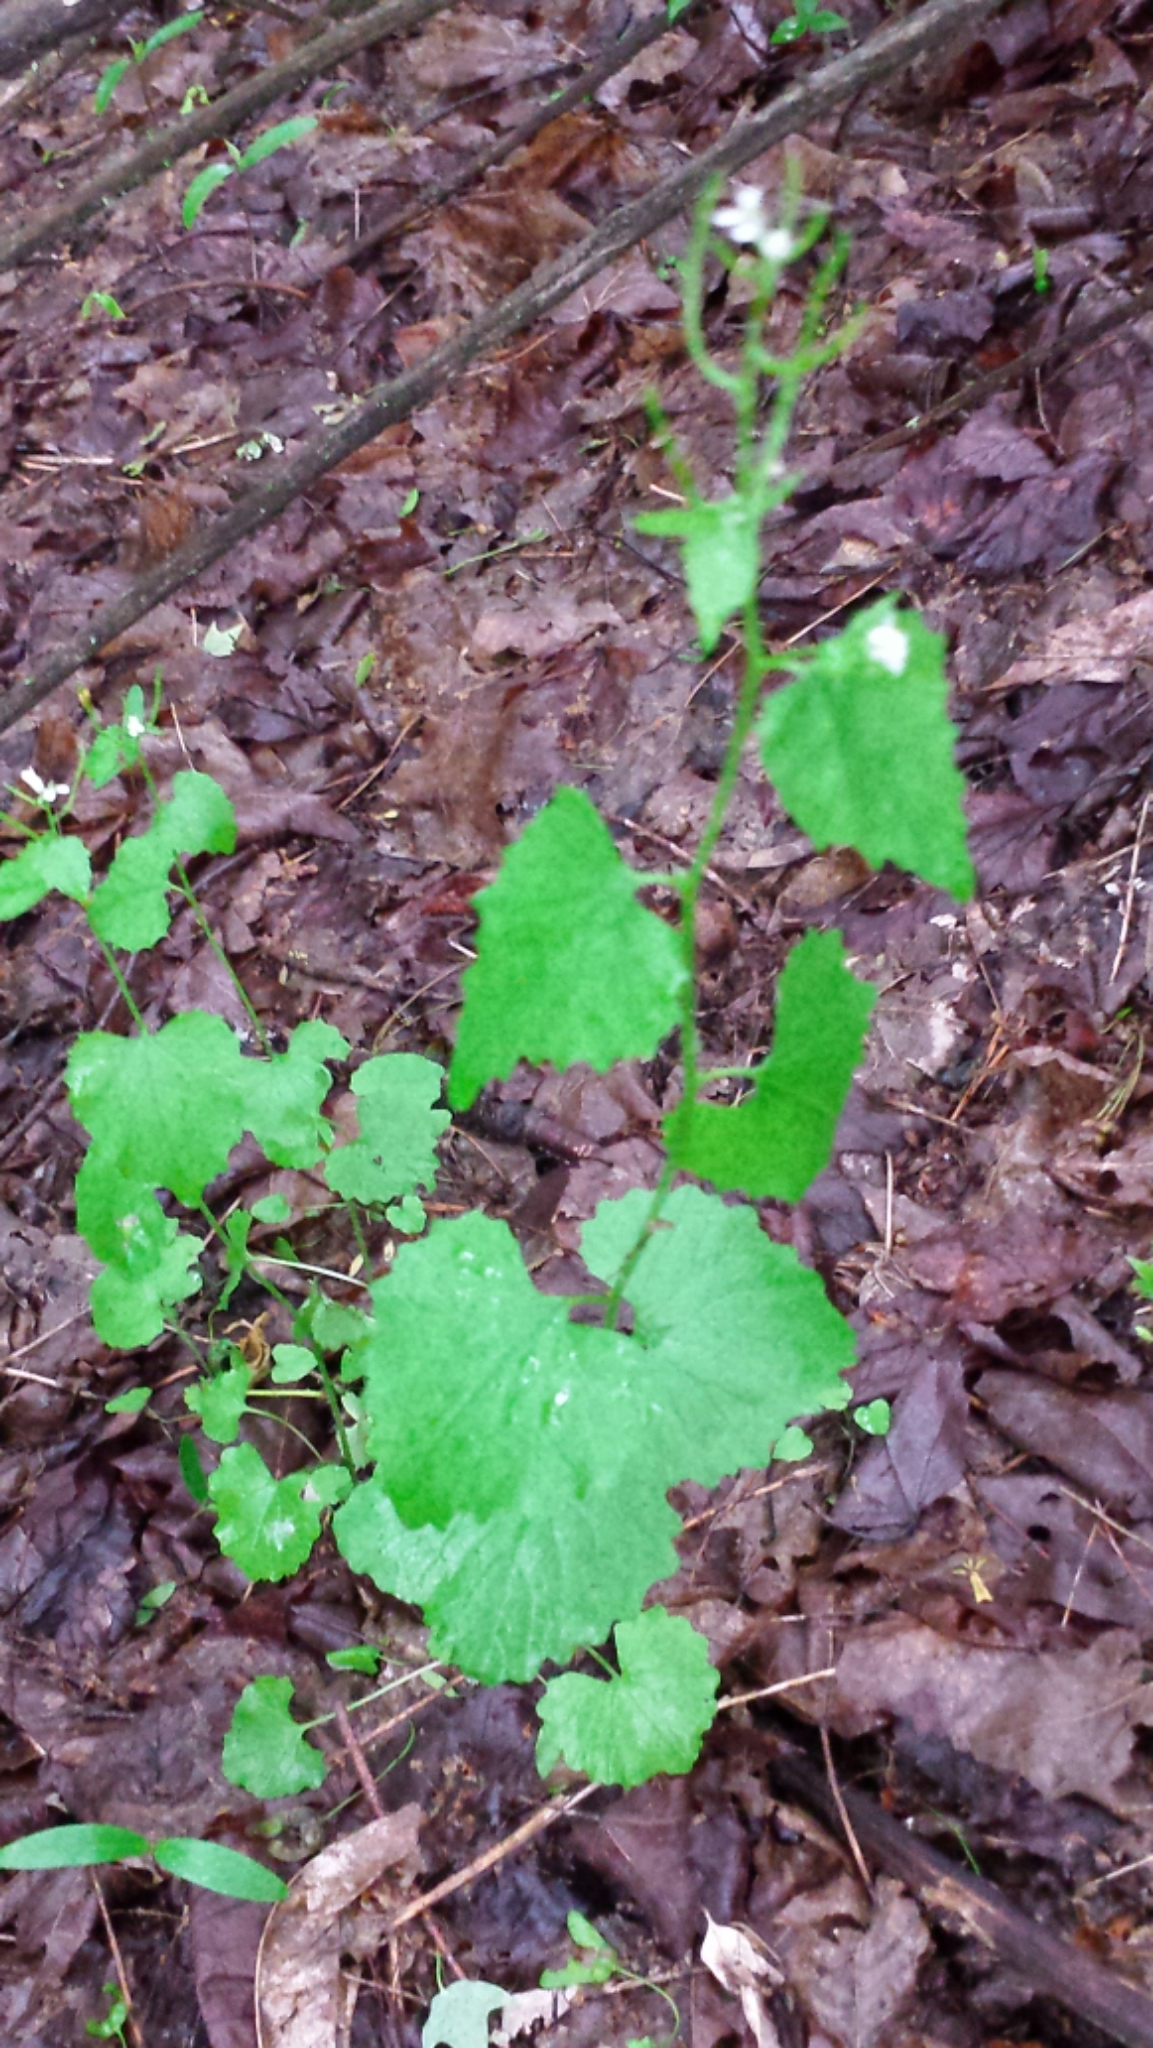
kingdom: Plantae
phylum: Tracheophyta
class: Magnoliopsida
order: Brassicales
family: Brassicaceae
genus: Alliaria
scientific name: Alliaria petiolata
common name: Garlic mustard
